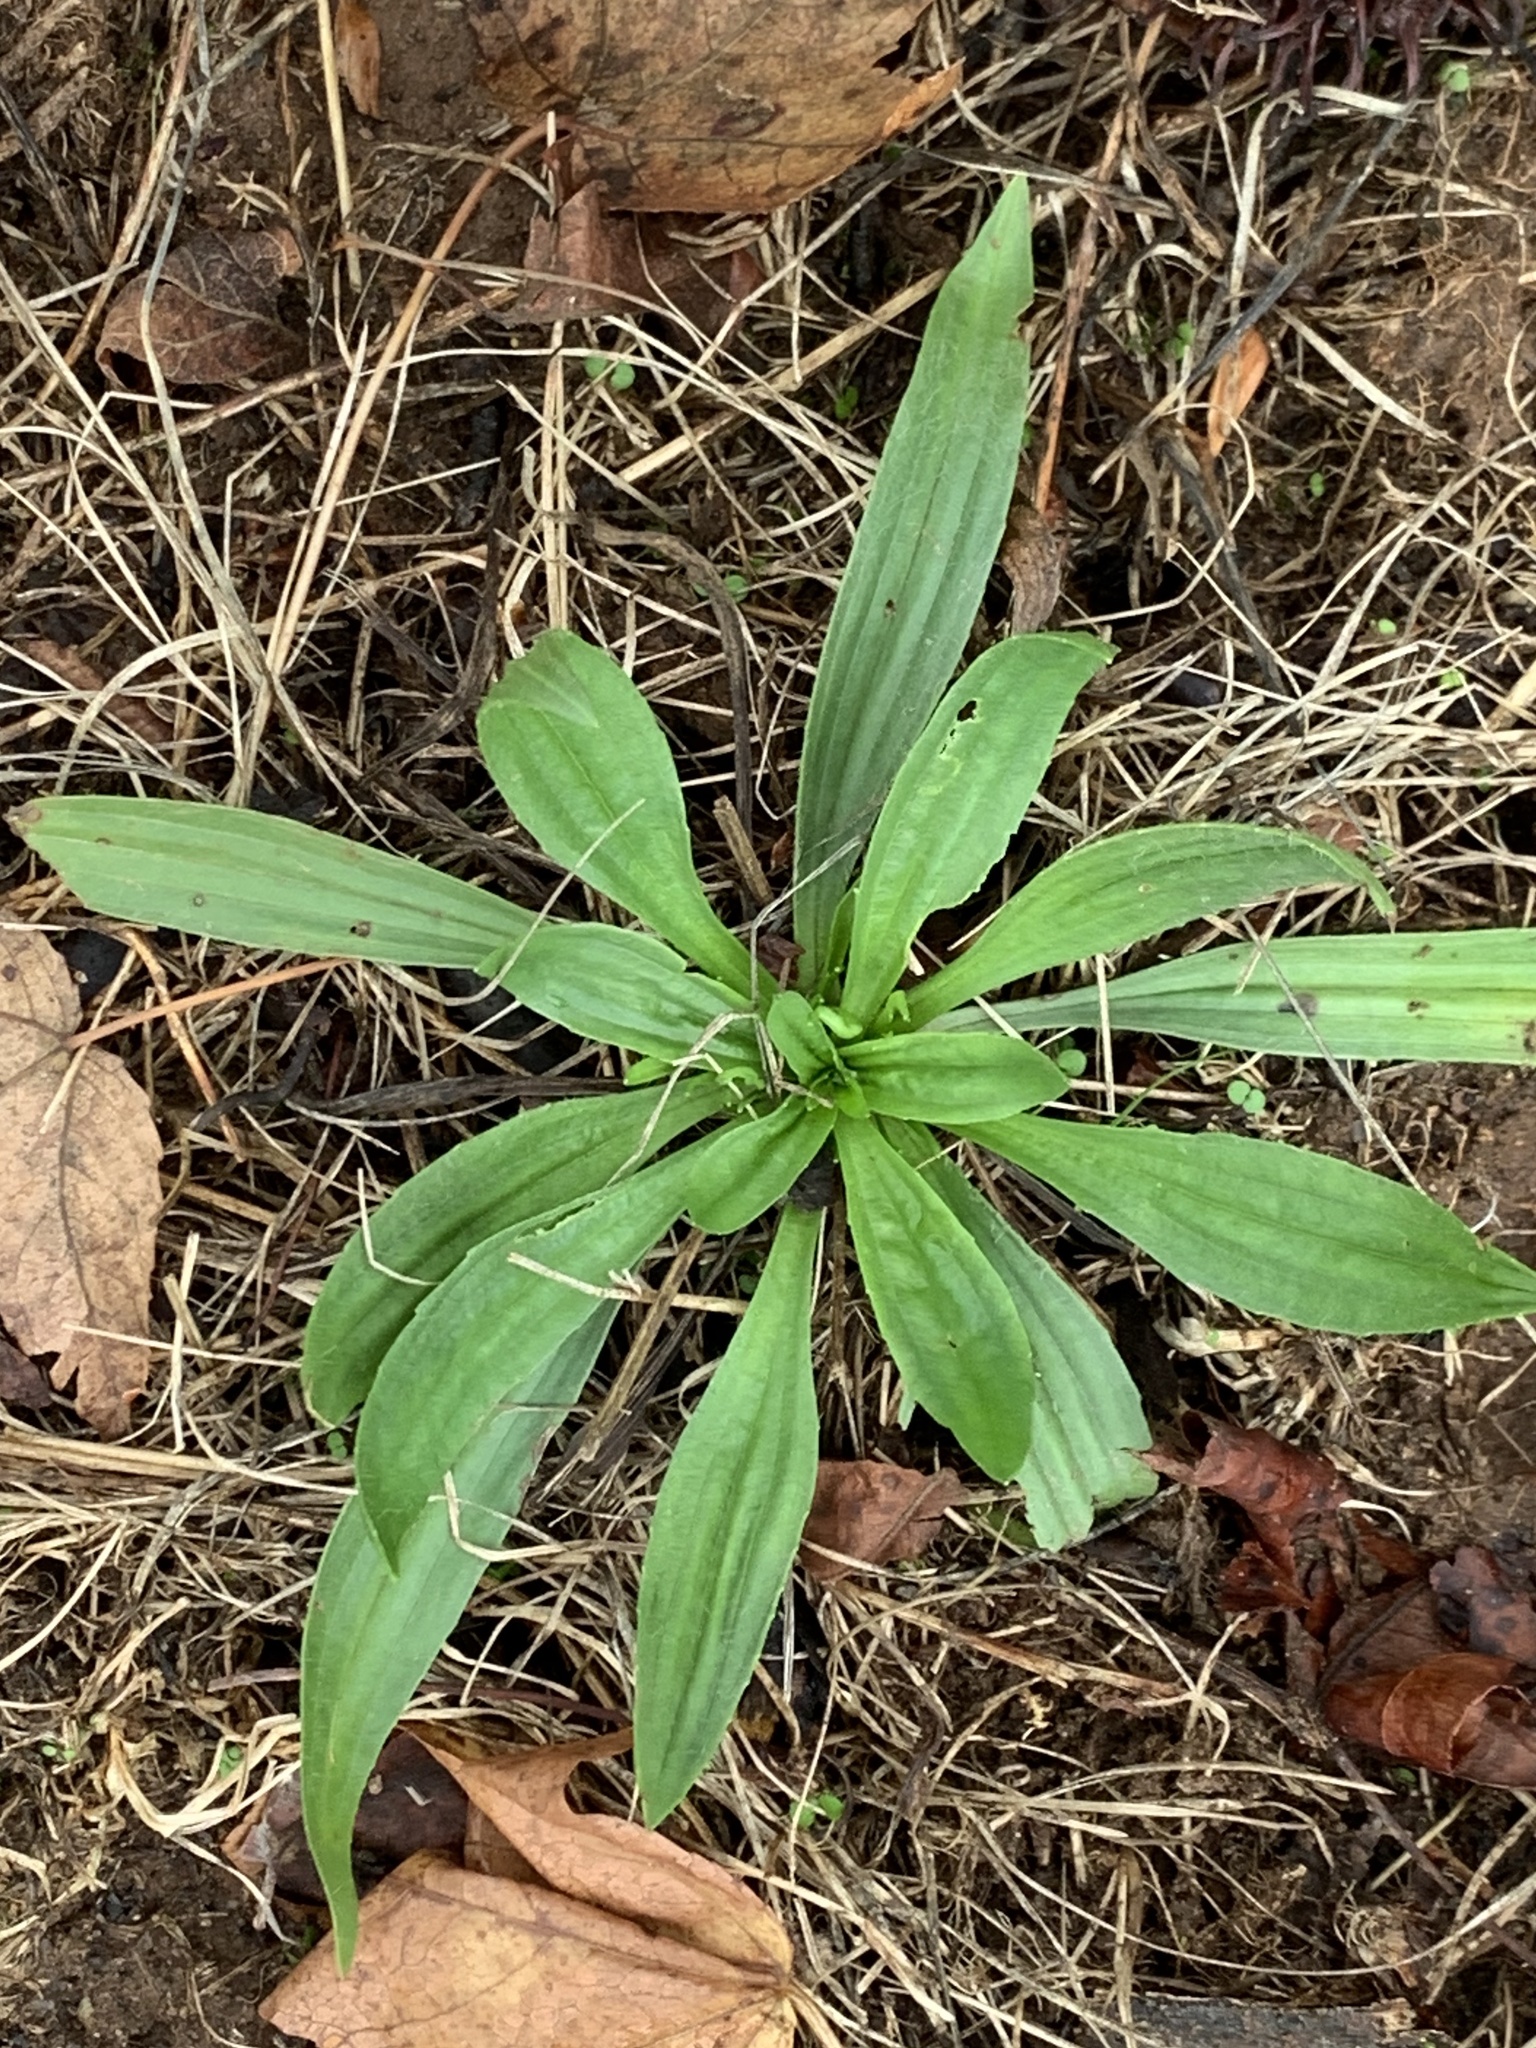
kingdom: Plantae
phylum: Tracheophyta
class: Magnoliopsida
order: Lamiales
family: Plantaginaceae
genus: Plantago
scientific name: Plantago lanceolata
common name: Ribwort plantain
